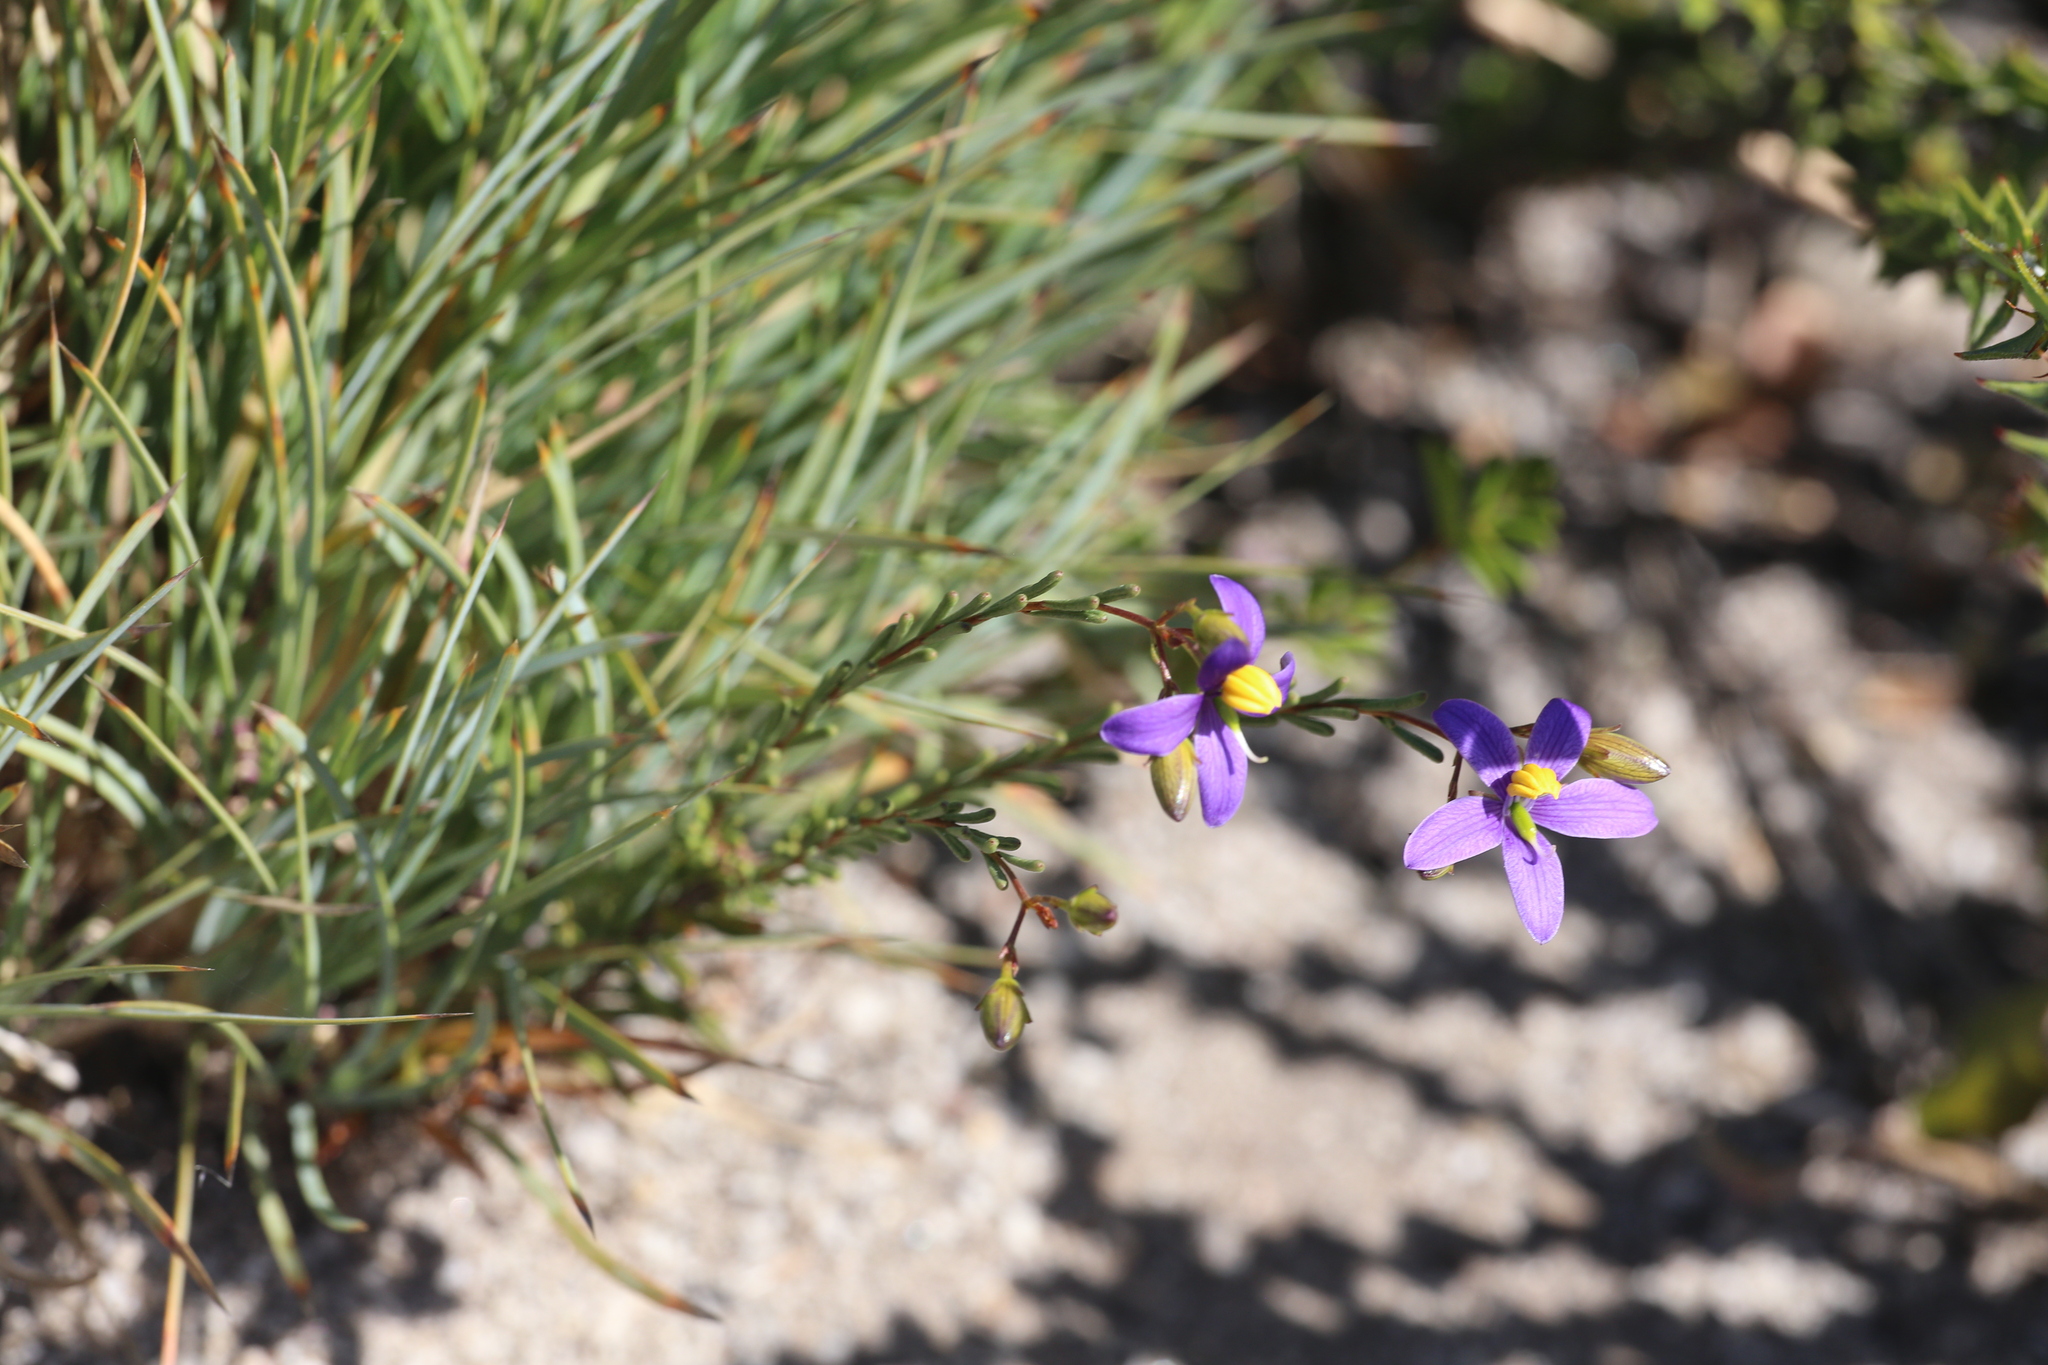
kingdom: Plantae
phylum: Tracheophyta
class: Magnoliopsida
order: Apiales
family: Pittosporaceae
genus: Cheiranthera
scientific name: Cheiranthera brevifolia
